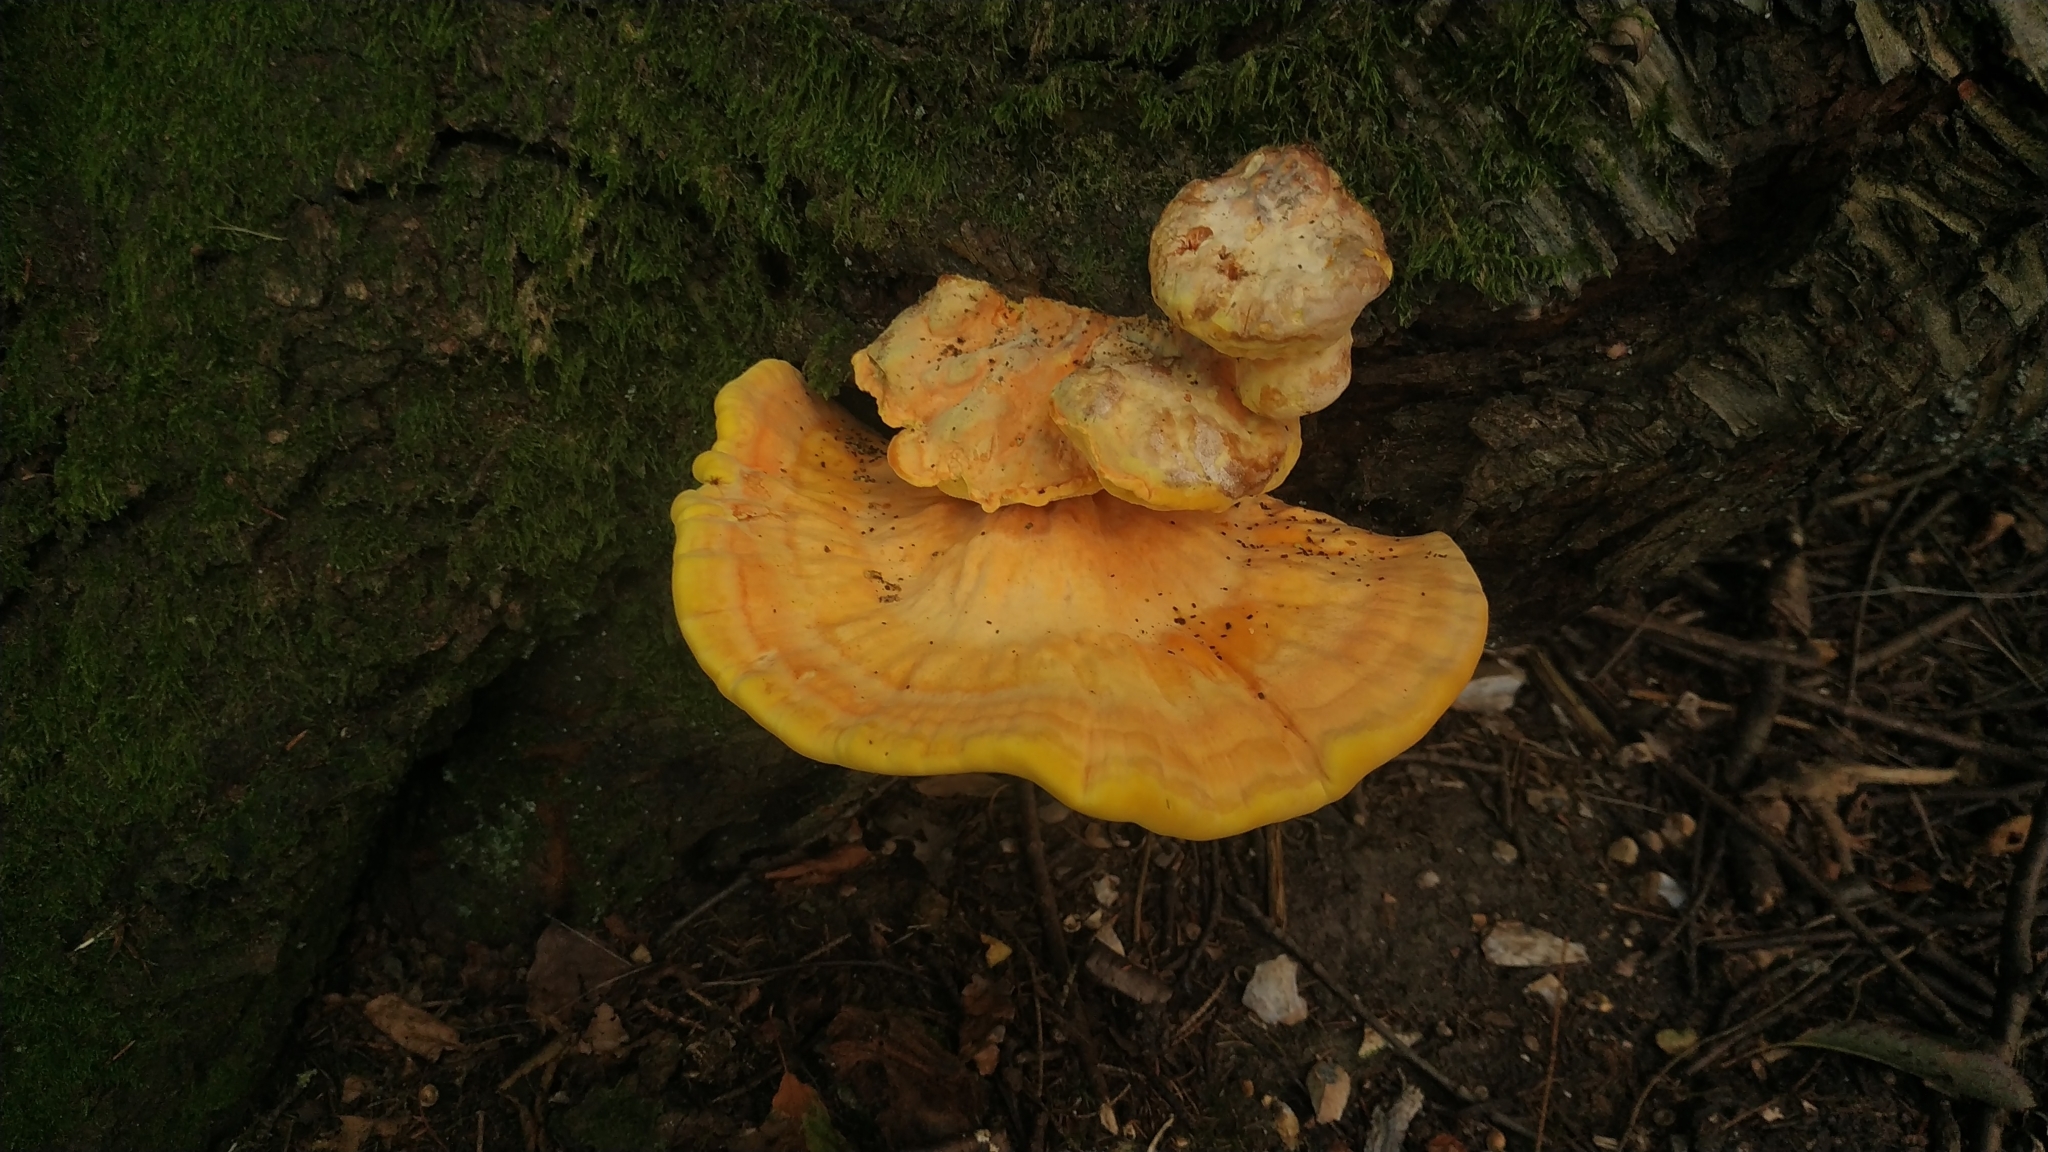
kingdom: Fungi
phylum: Basidiomycota
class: Agaricomycetes
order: Polyporales
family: Laetiporaceae
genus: Laetiporus
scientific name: Laetiporus sulphureus
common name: Chicken of the woods
